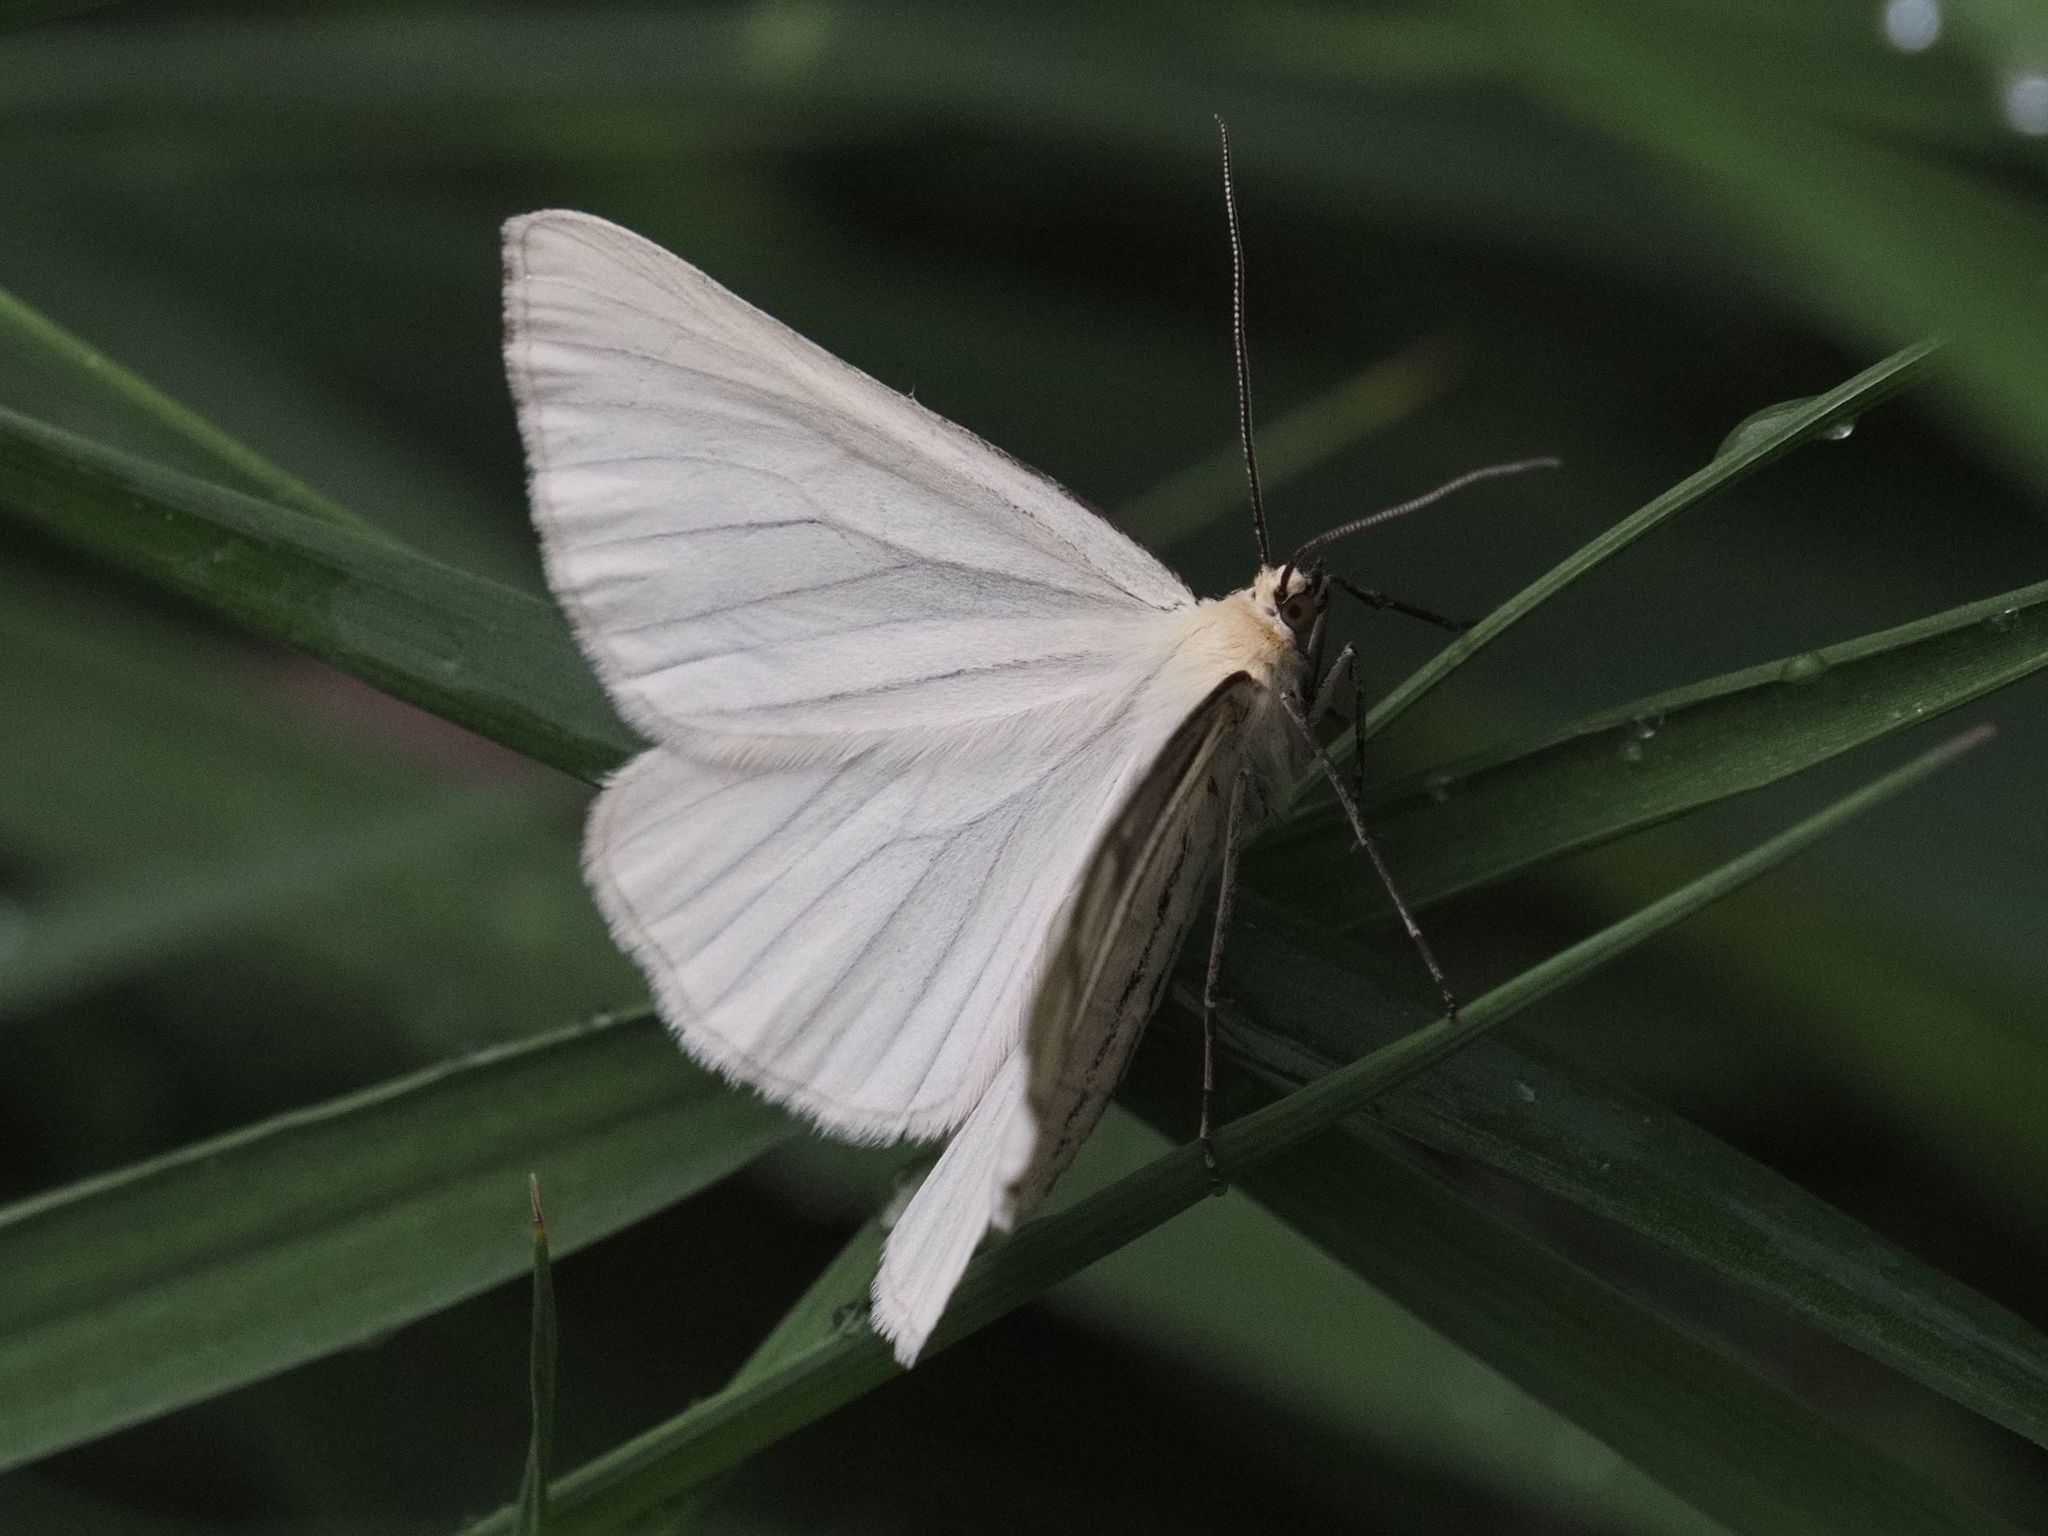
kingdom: Animalia
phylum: Arthropoda
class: Insecta
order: Lepidoptera
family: Geometridae
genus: Siona
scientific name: Siona lineata
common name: Black-veined moth
